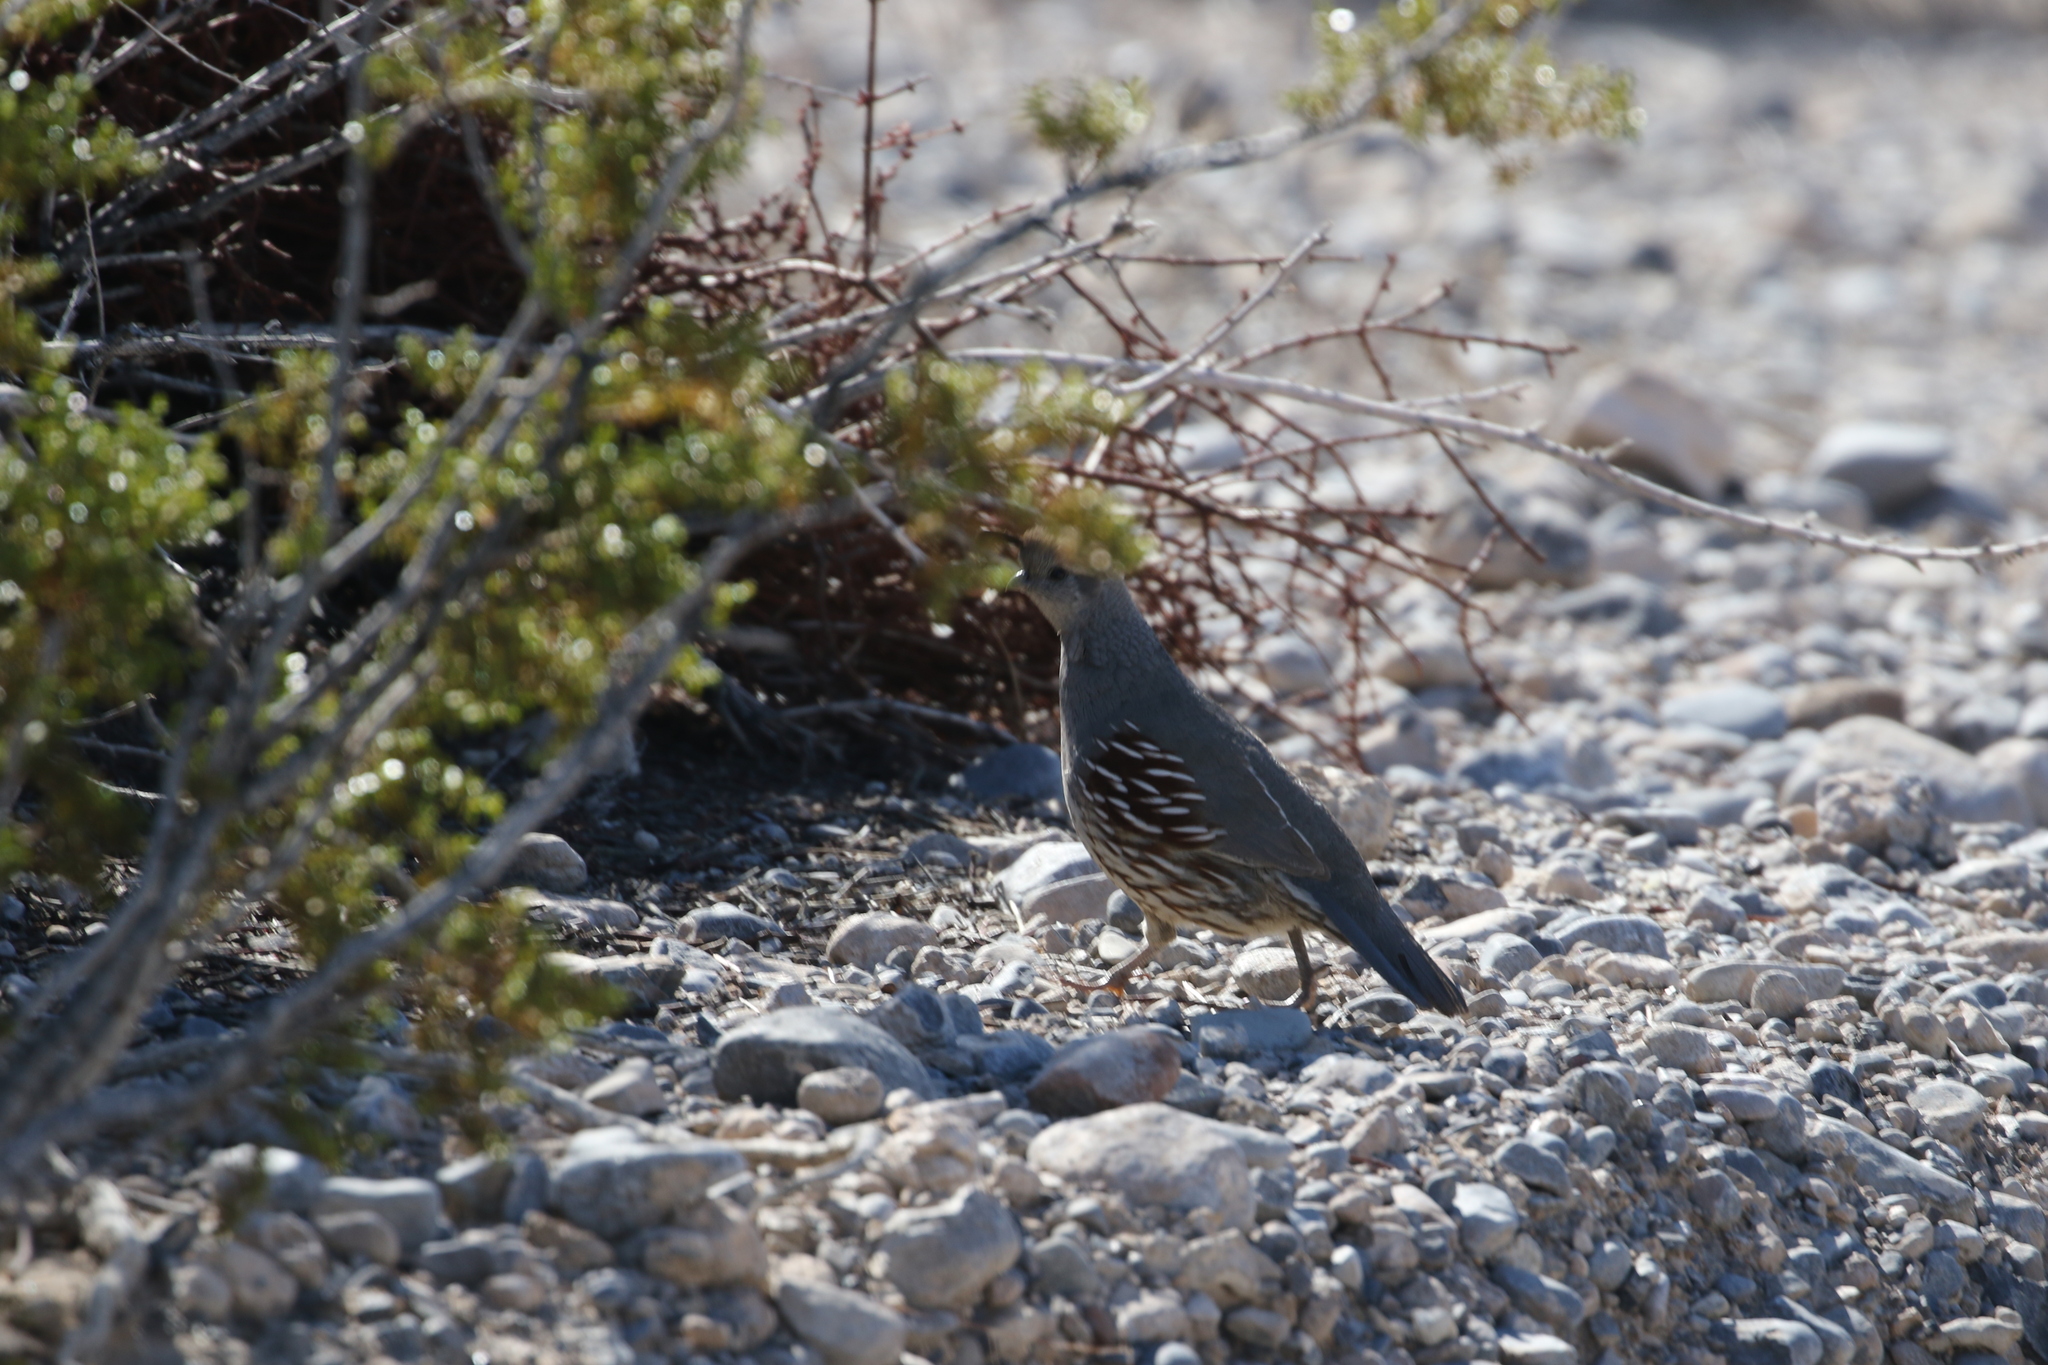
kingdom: Animalia
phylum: Chordata
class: Aves
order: Galliformes
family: Odontophoridae
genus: Callipepla
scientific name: Callipepla gambelii
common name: Gambel's quail
